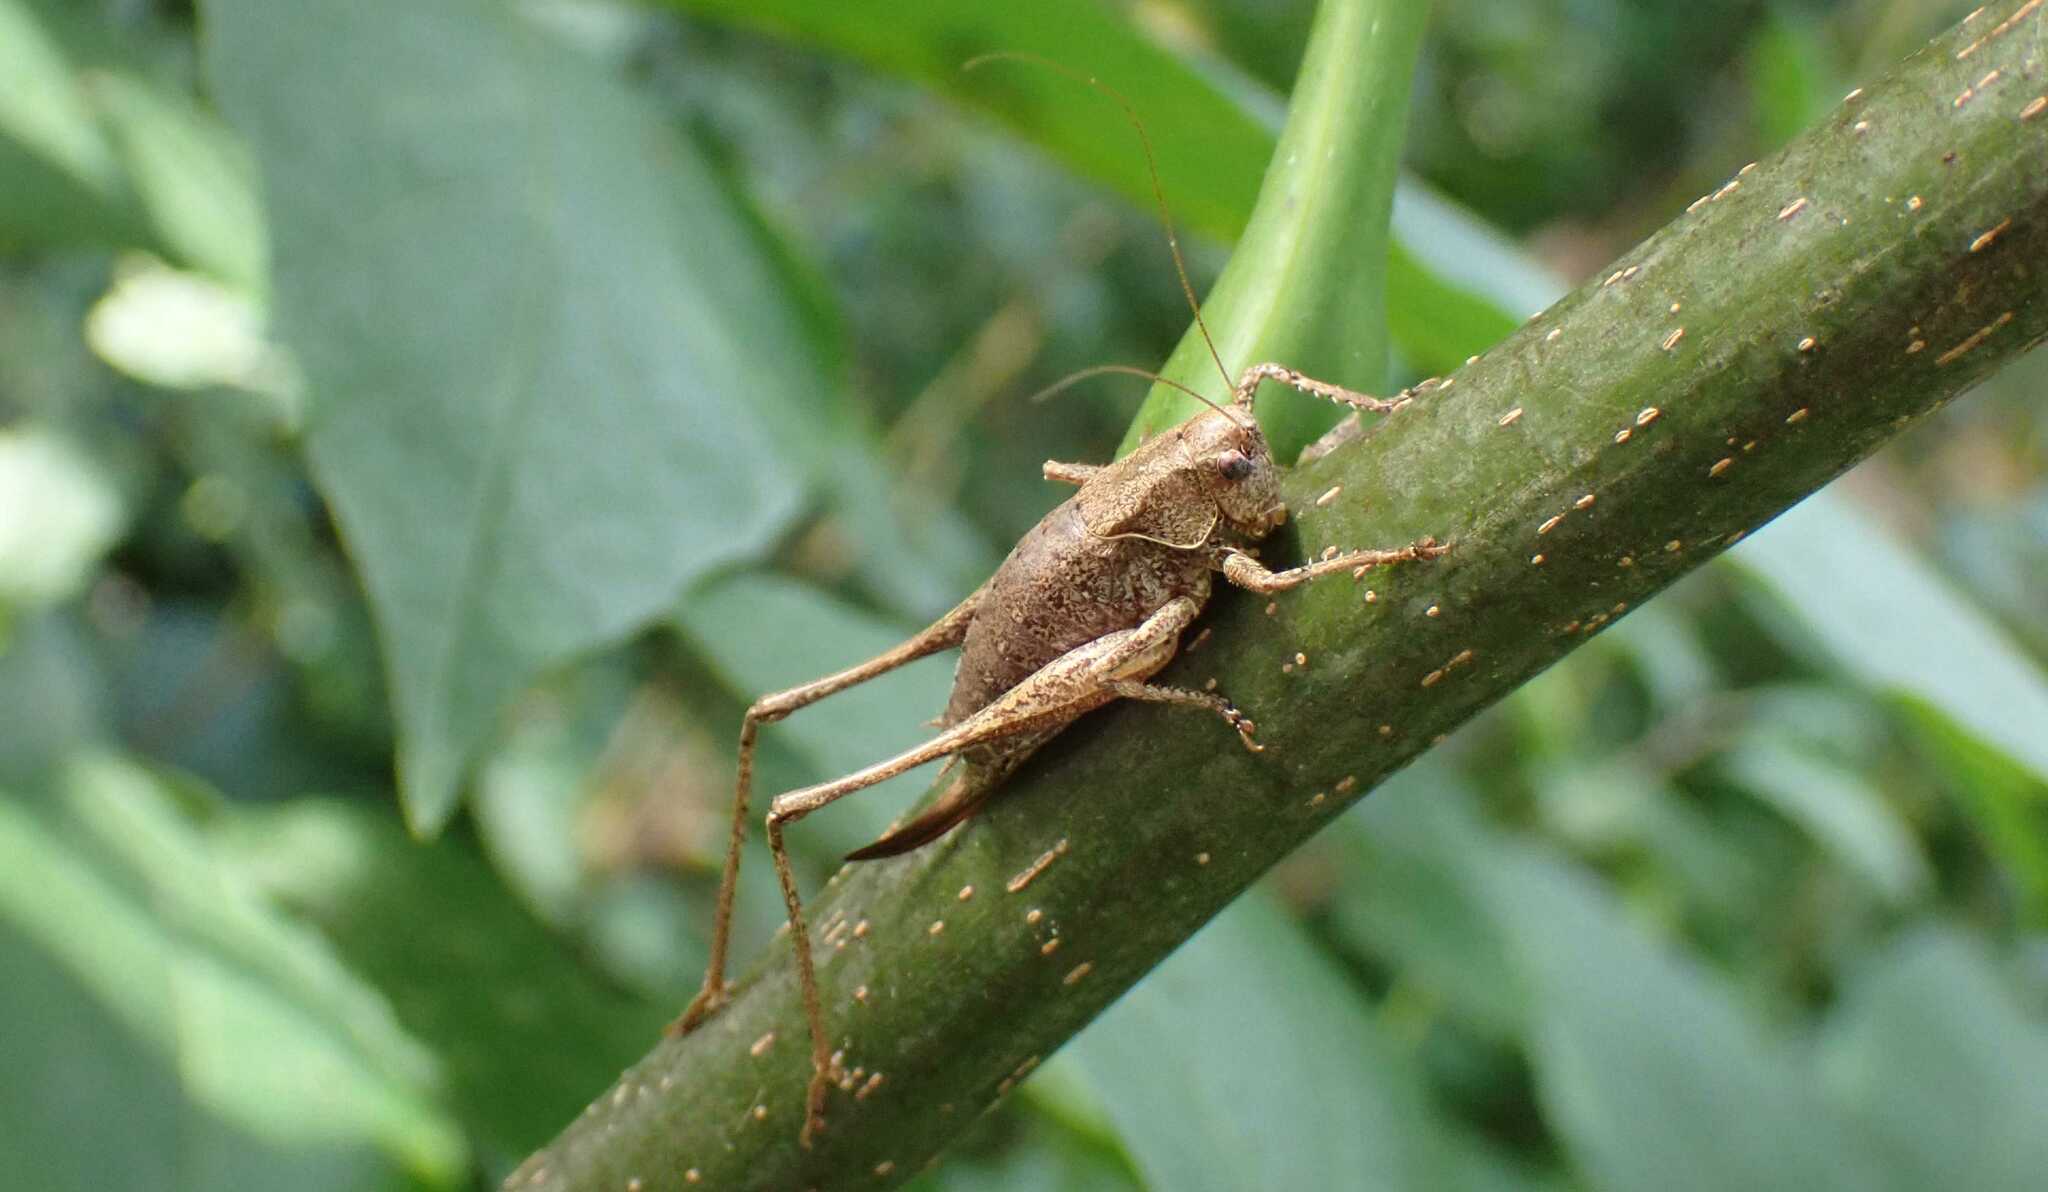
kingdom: Animalia
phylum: Arthropoda
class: Insecta
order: Orthoptera
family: Tettigoniidae
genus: Pholidoptera
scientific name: Pholidoptera griseoaptera
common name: Dark bush-cricket
